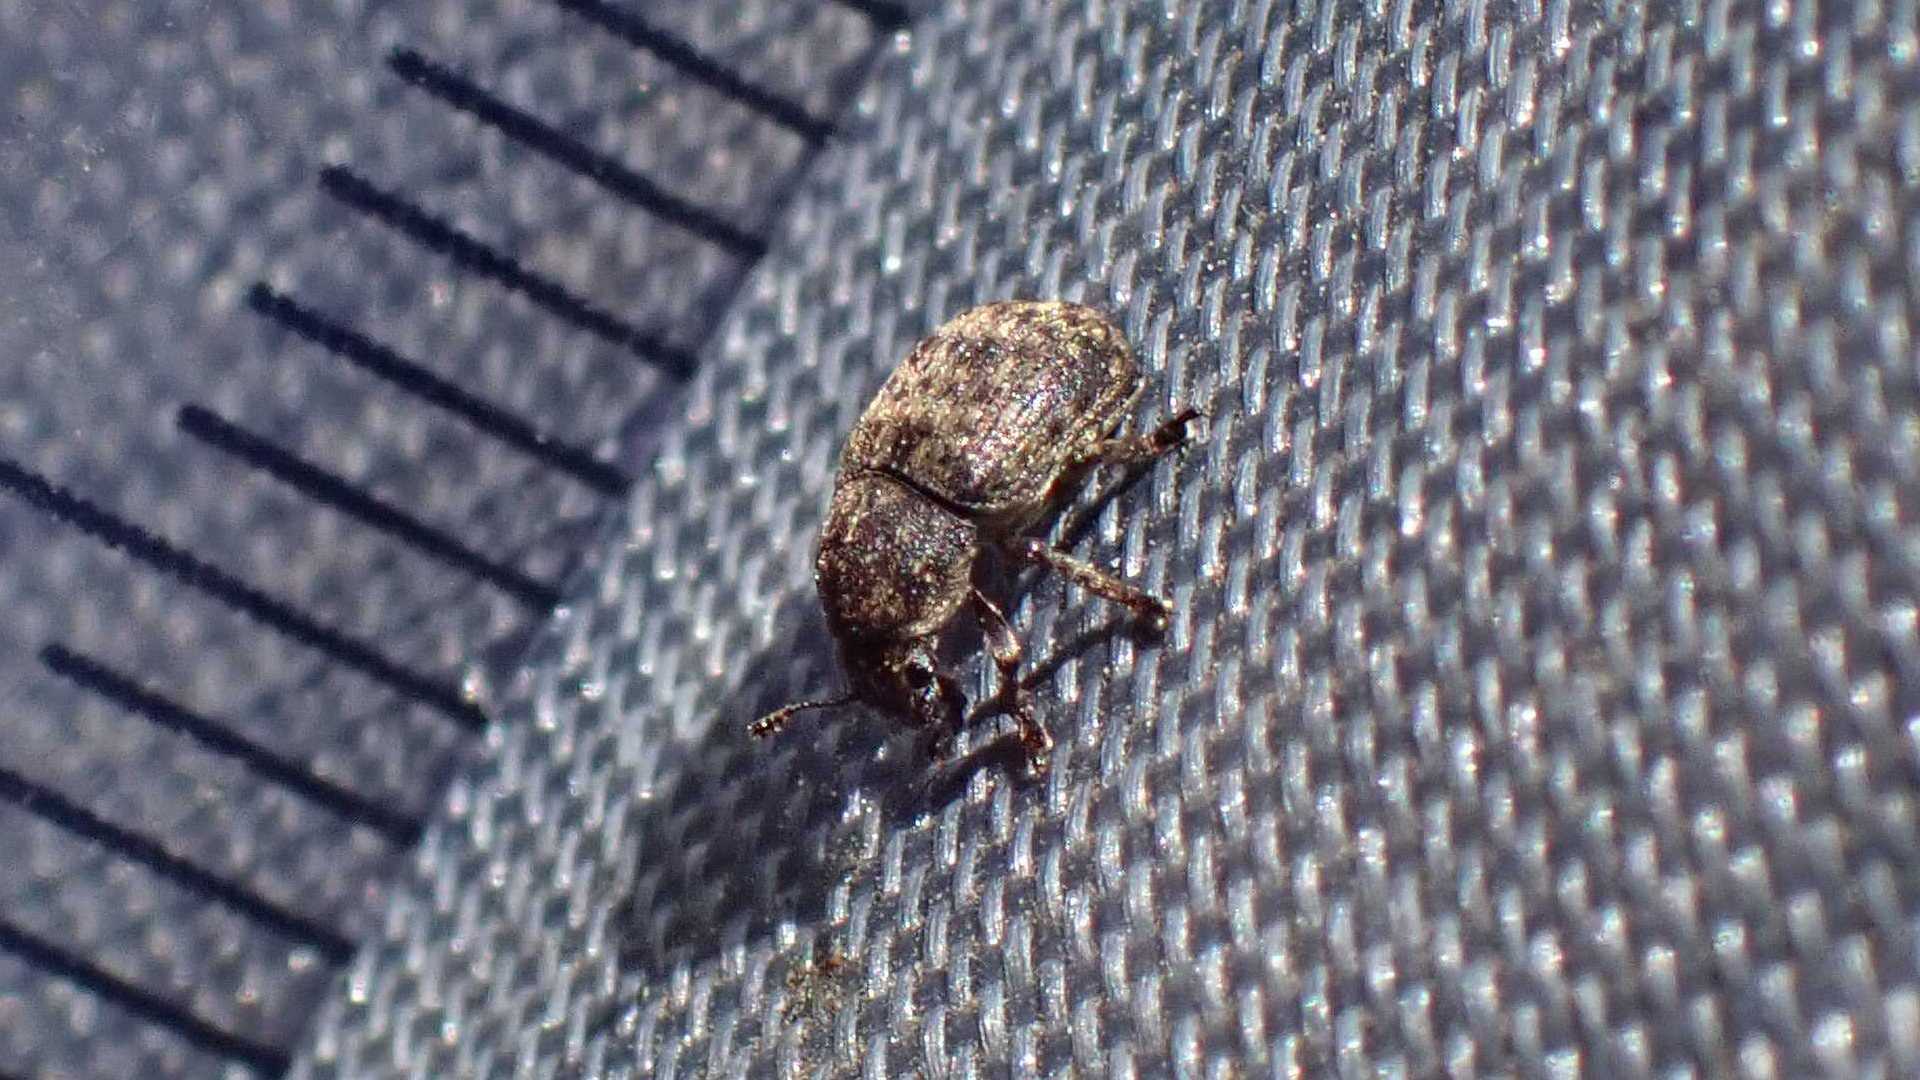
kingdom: Animalia
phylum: Arthropoda
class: Insecta
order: Coleoptera
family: Anthribidae
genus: Anthribus
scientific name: Anthribus nebulosus
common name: Fungus weevil
